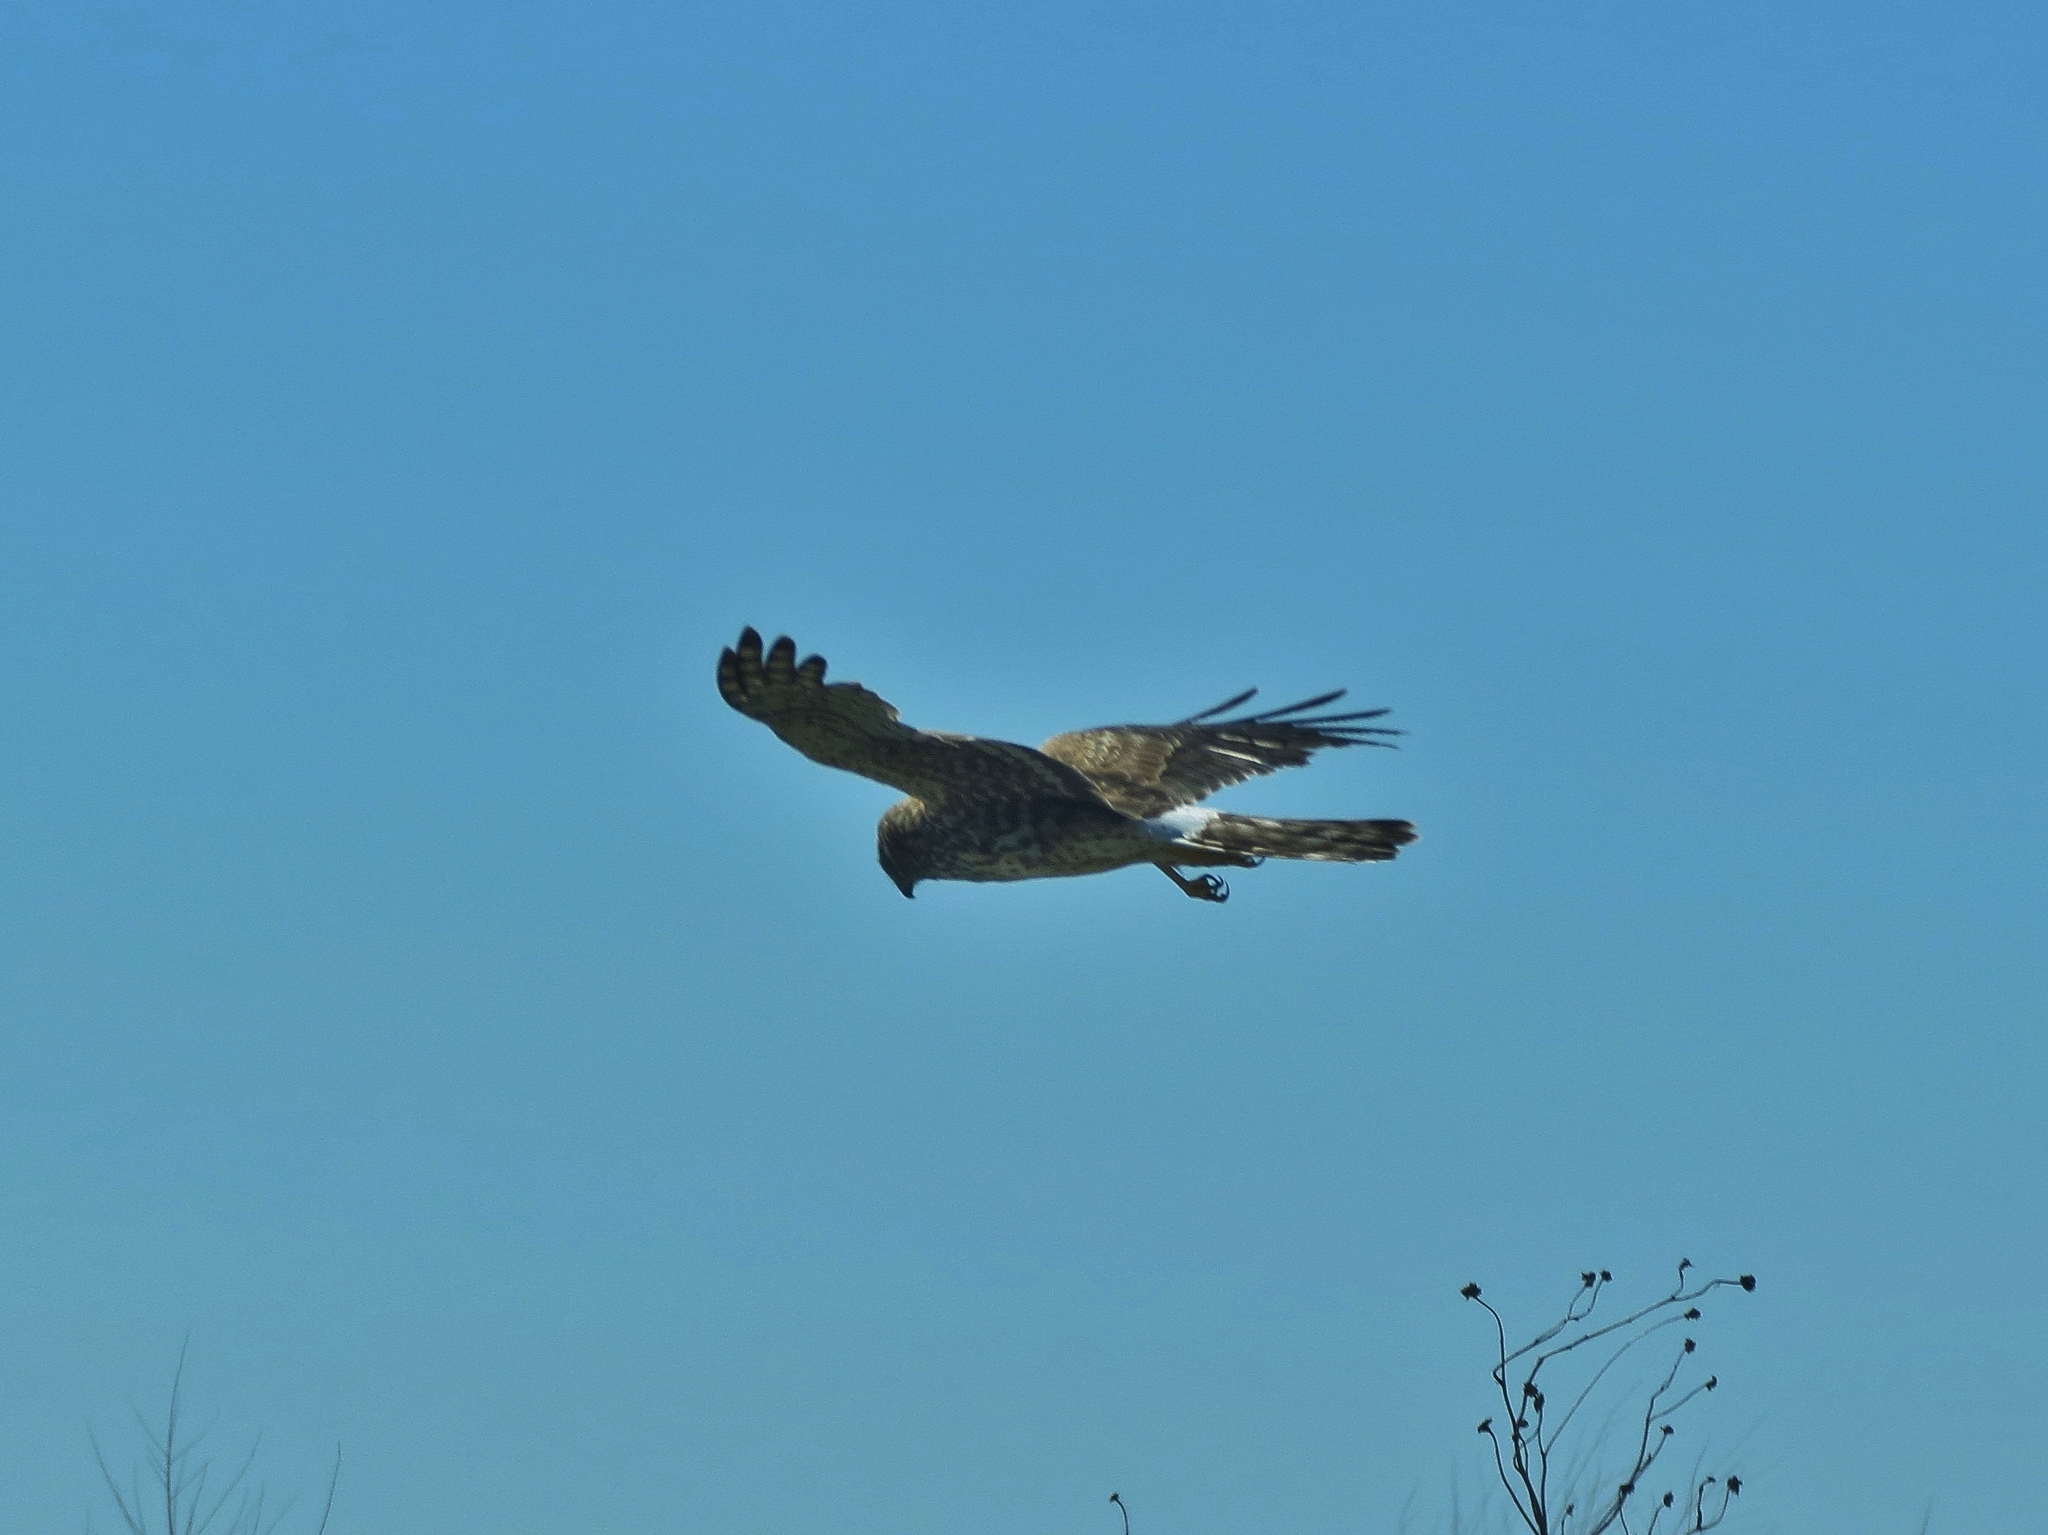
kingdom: Animalia
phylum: Chordata
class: Aves
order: Accipitriformes
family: Accipitridae
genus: Circus
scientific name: Circus cyaneus
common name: Hen harrier
